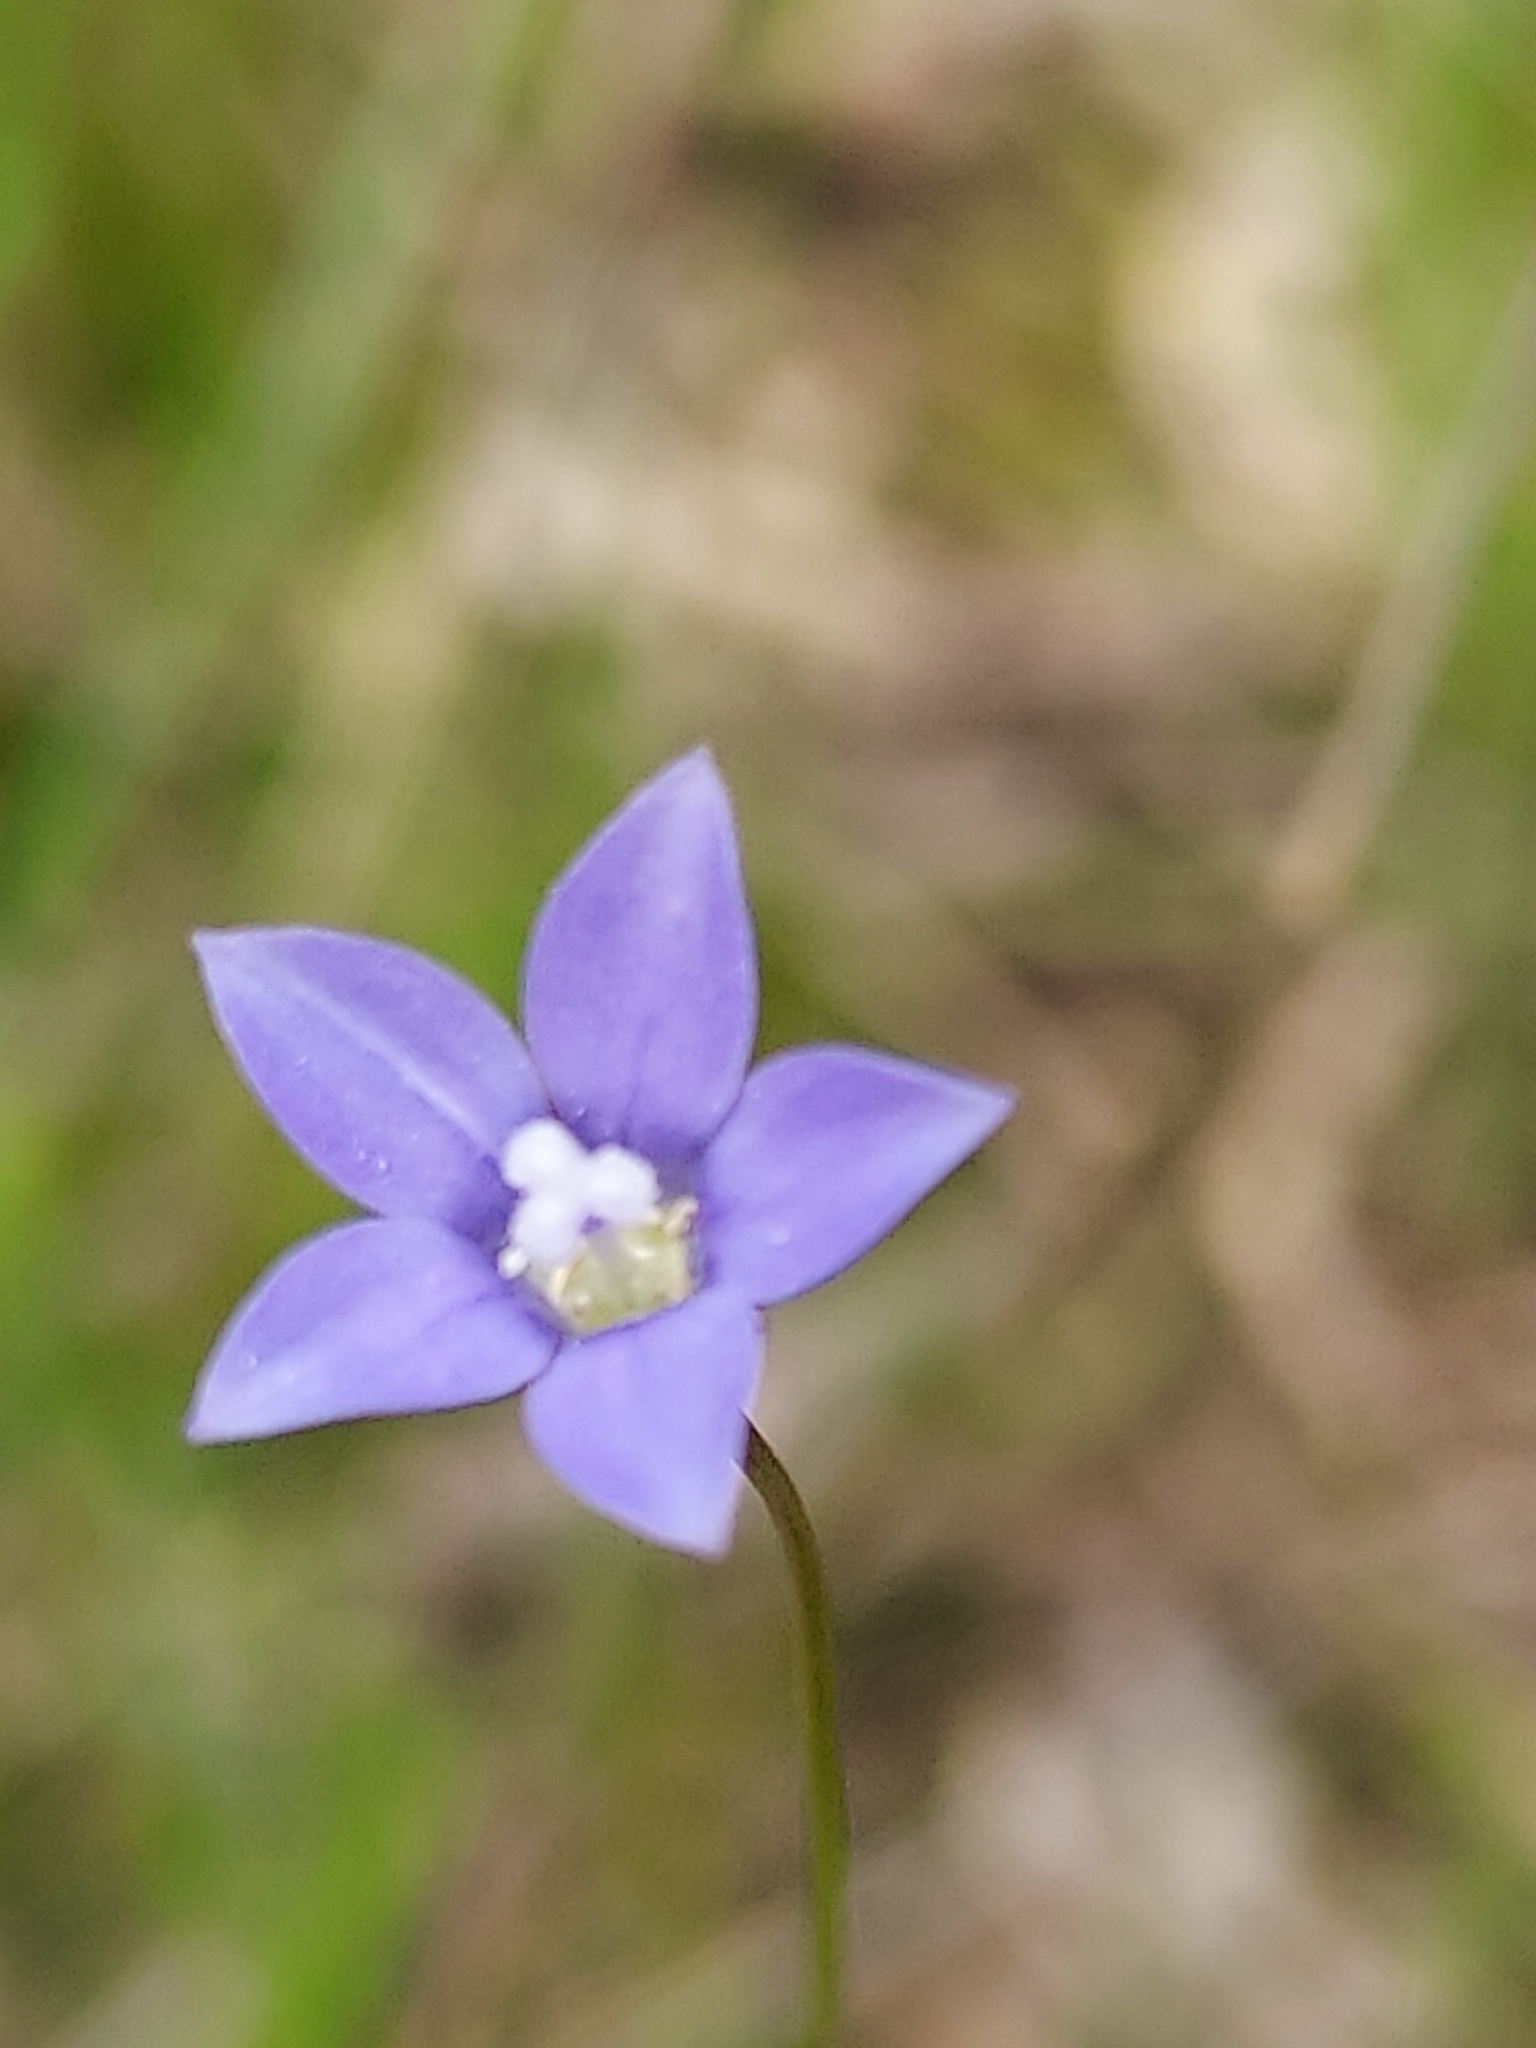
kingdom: Plantae
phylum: Tracheophyta
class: Magnoliopsida
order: Asterales
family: Campanulaceae
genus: Wahlenbergia
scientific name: Wahlenbergia
